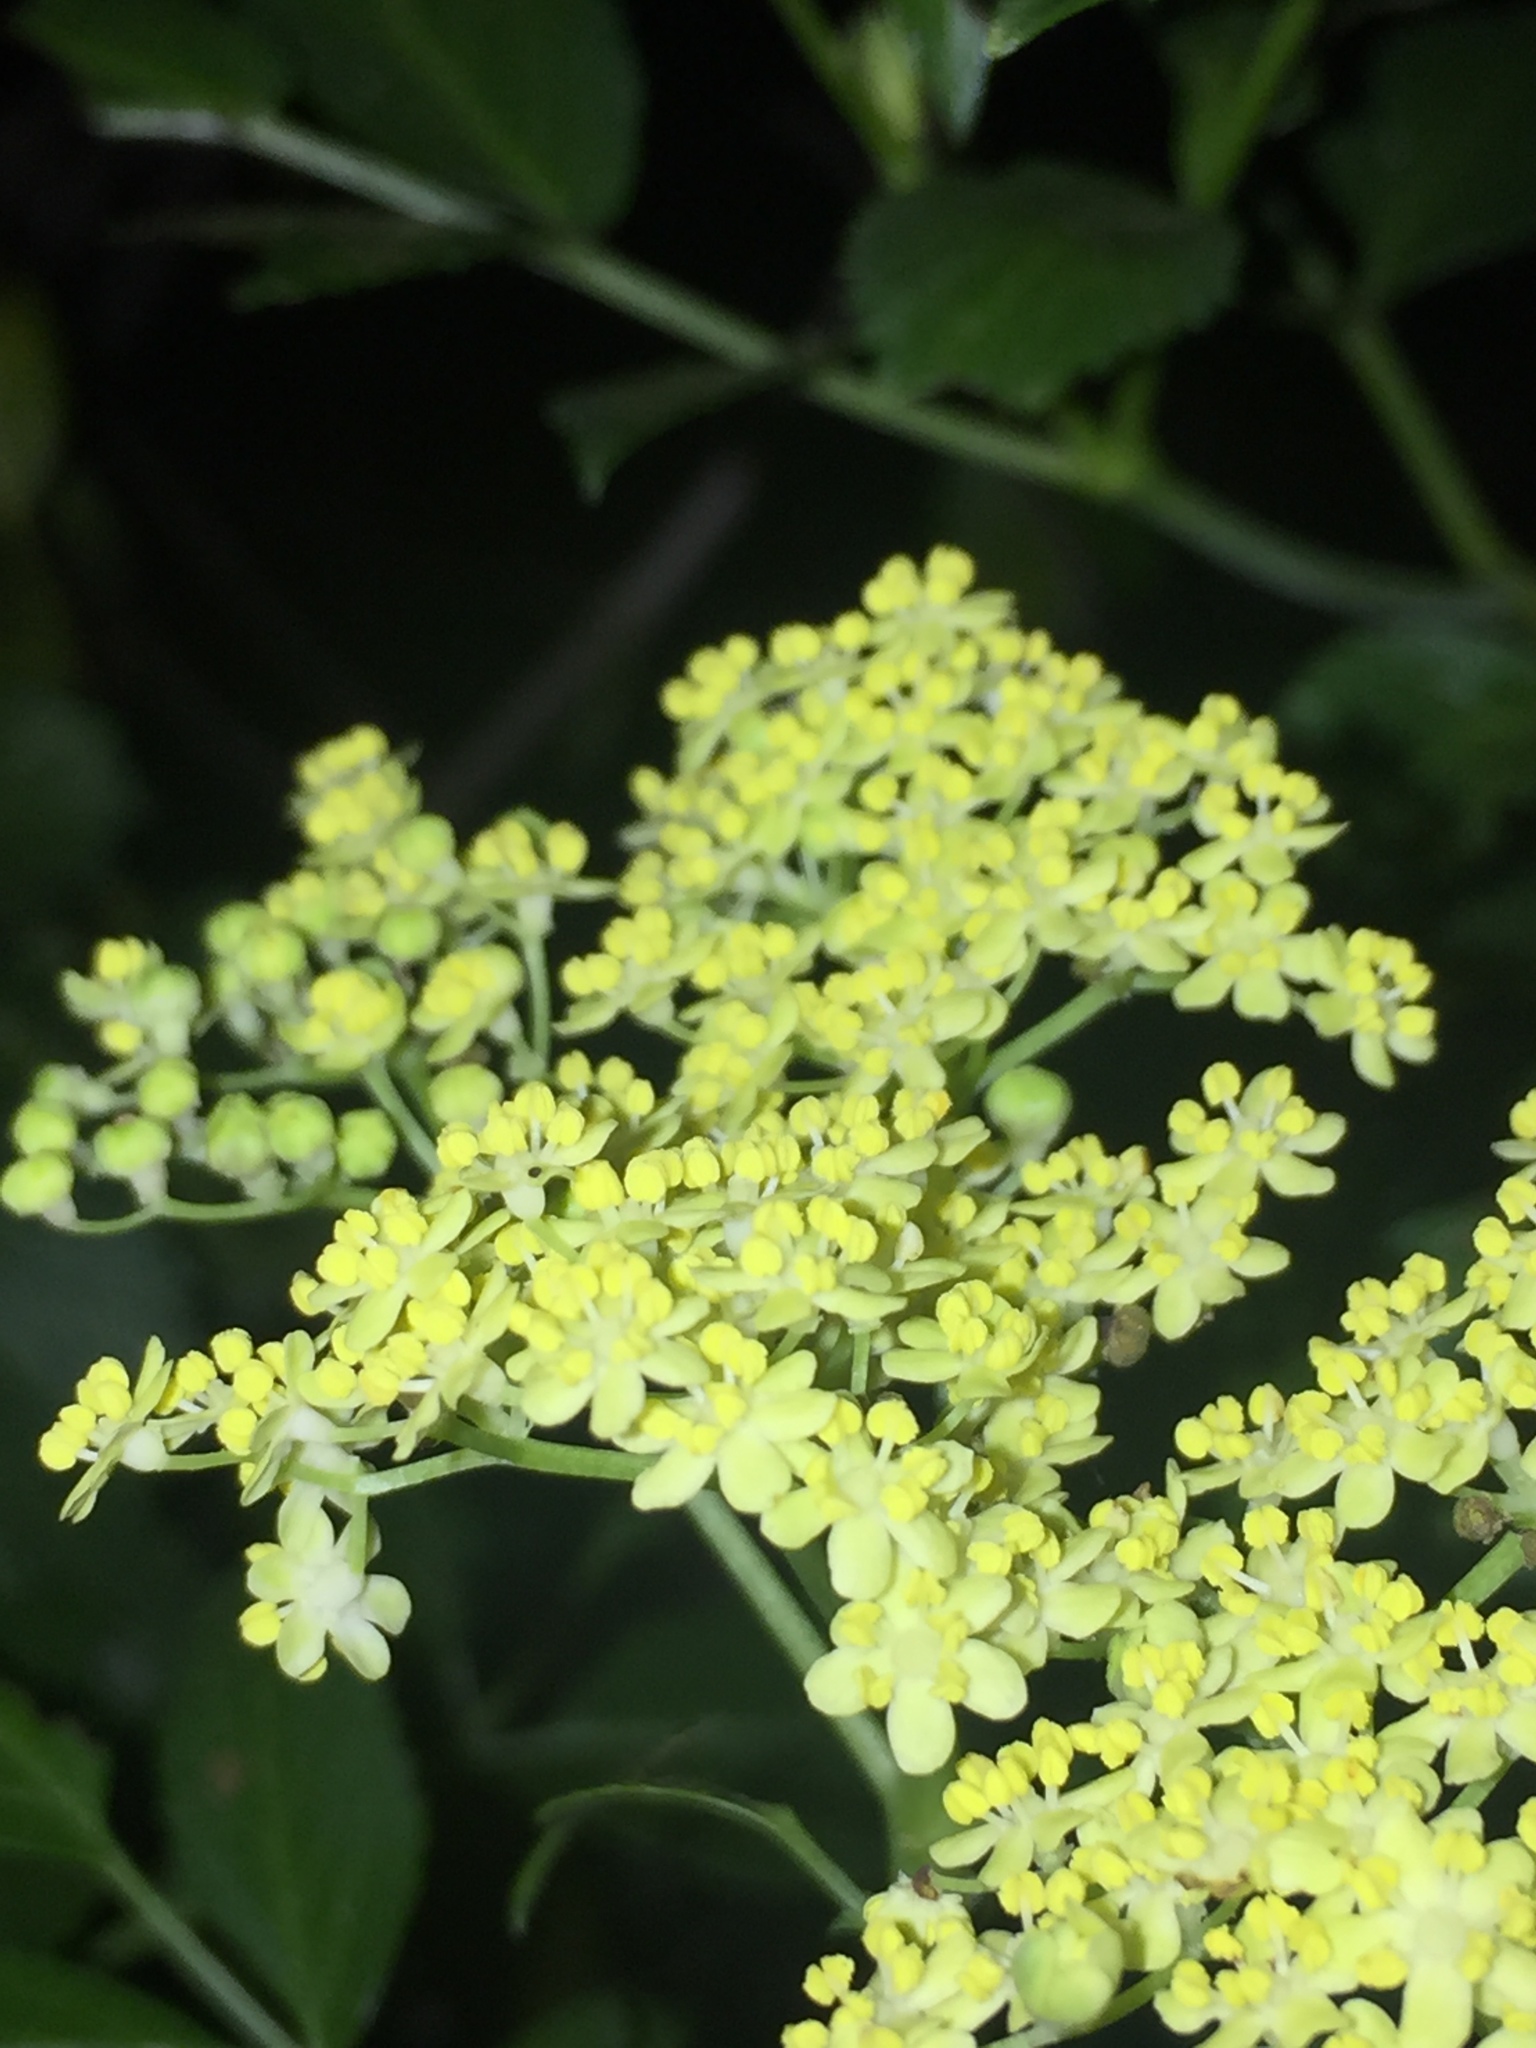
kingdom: Plantae
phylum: Tracheophyta
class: Magnoliopsida
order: Dipsacales
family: Viburnaceae
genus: Sambucus
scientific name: Sambucus cerulea
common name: Blue elder
